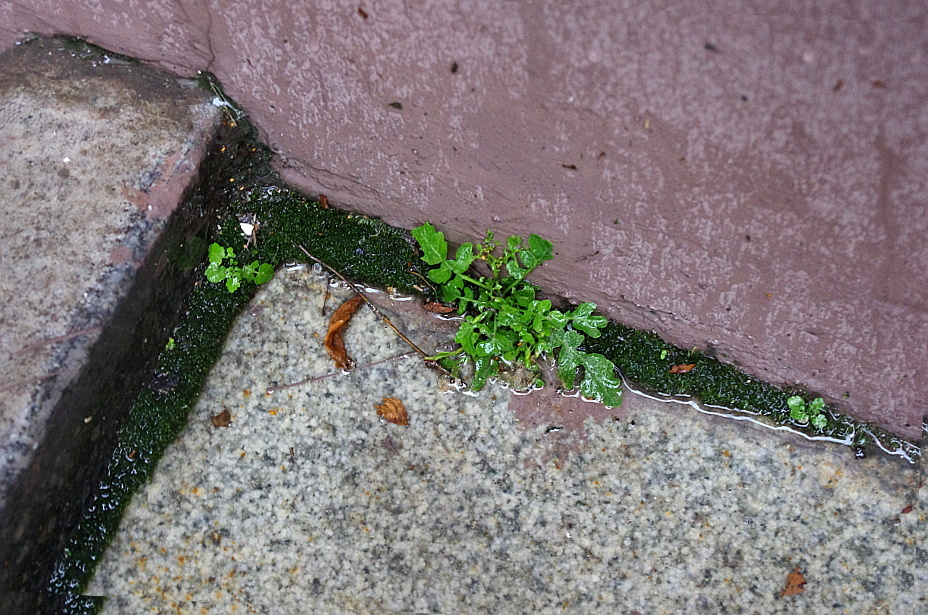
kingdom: Plantae
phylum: Tracheophyta
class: Magnoliopsida
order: Brassicales
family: Brassicaceae
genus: Rorippa
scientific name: Rorippa palustris
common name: Marsh yellow-cress
